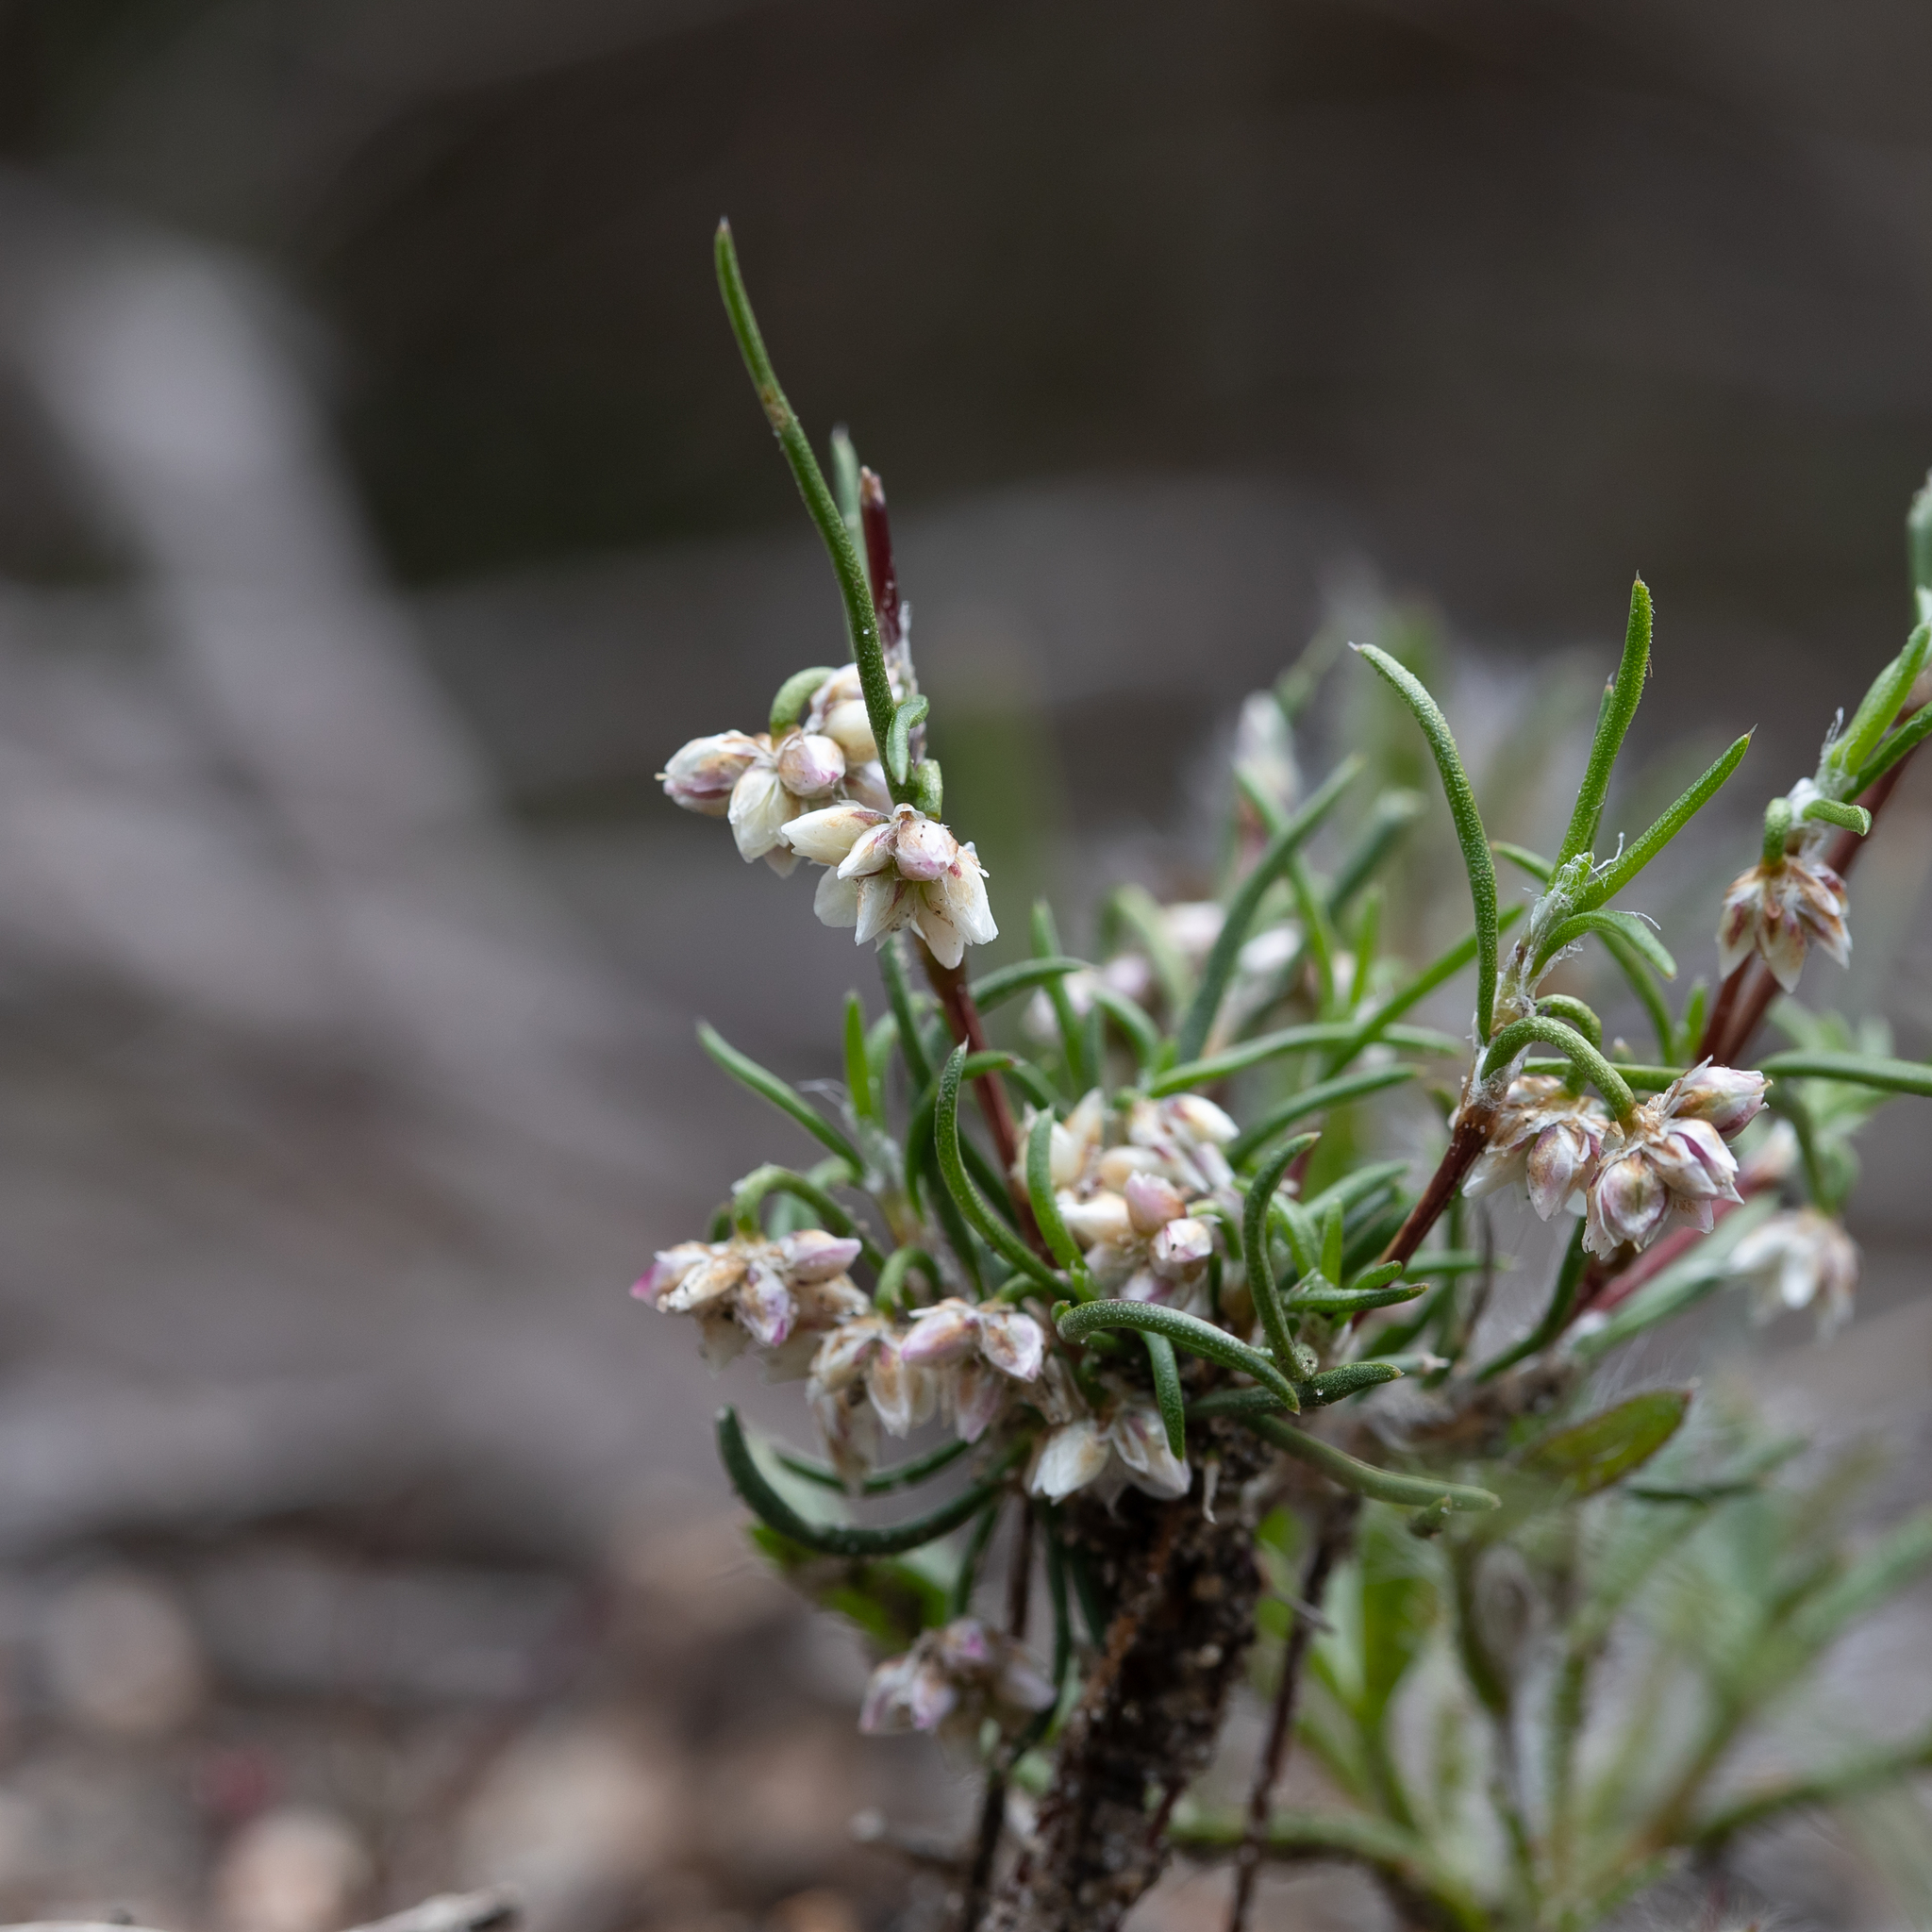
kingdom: Plantae
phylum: Tracheophyta
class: Liliopsida
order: Asparagales
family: Asparagaceae
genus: Laxmannia
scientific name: Laxmannia orientalis
